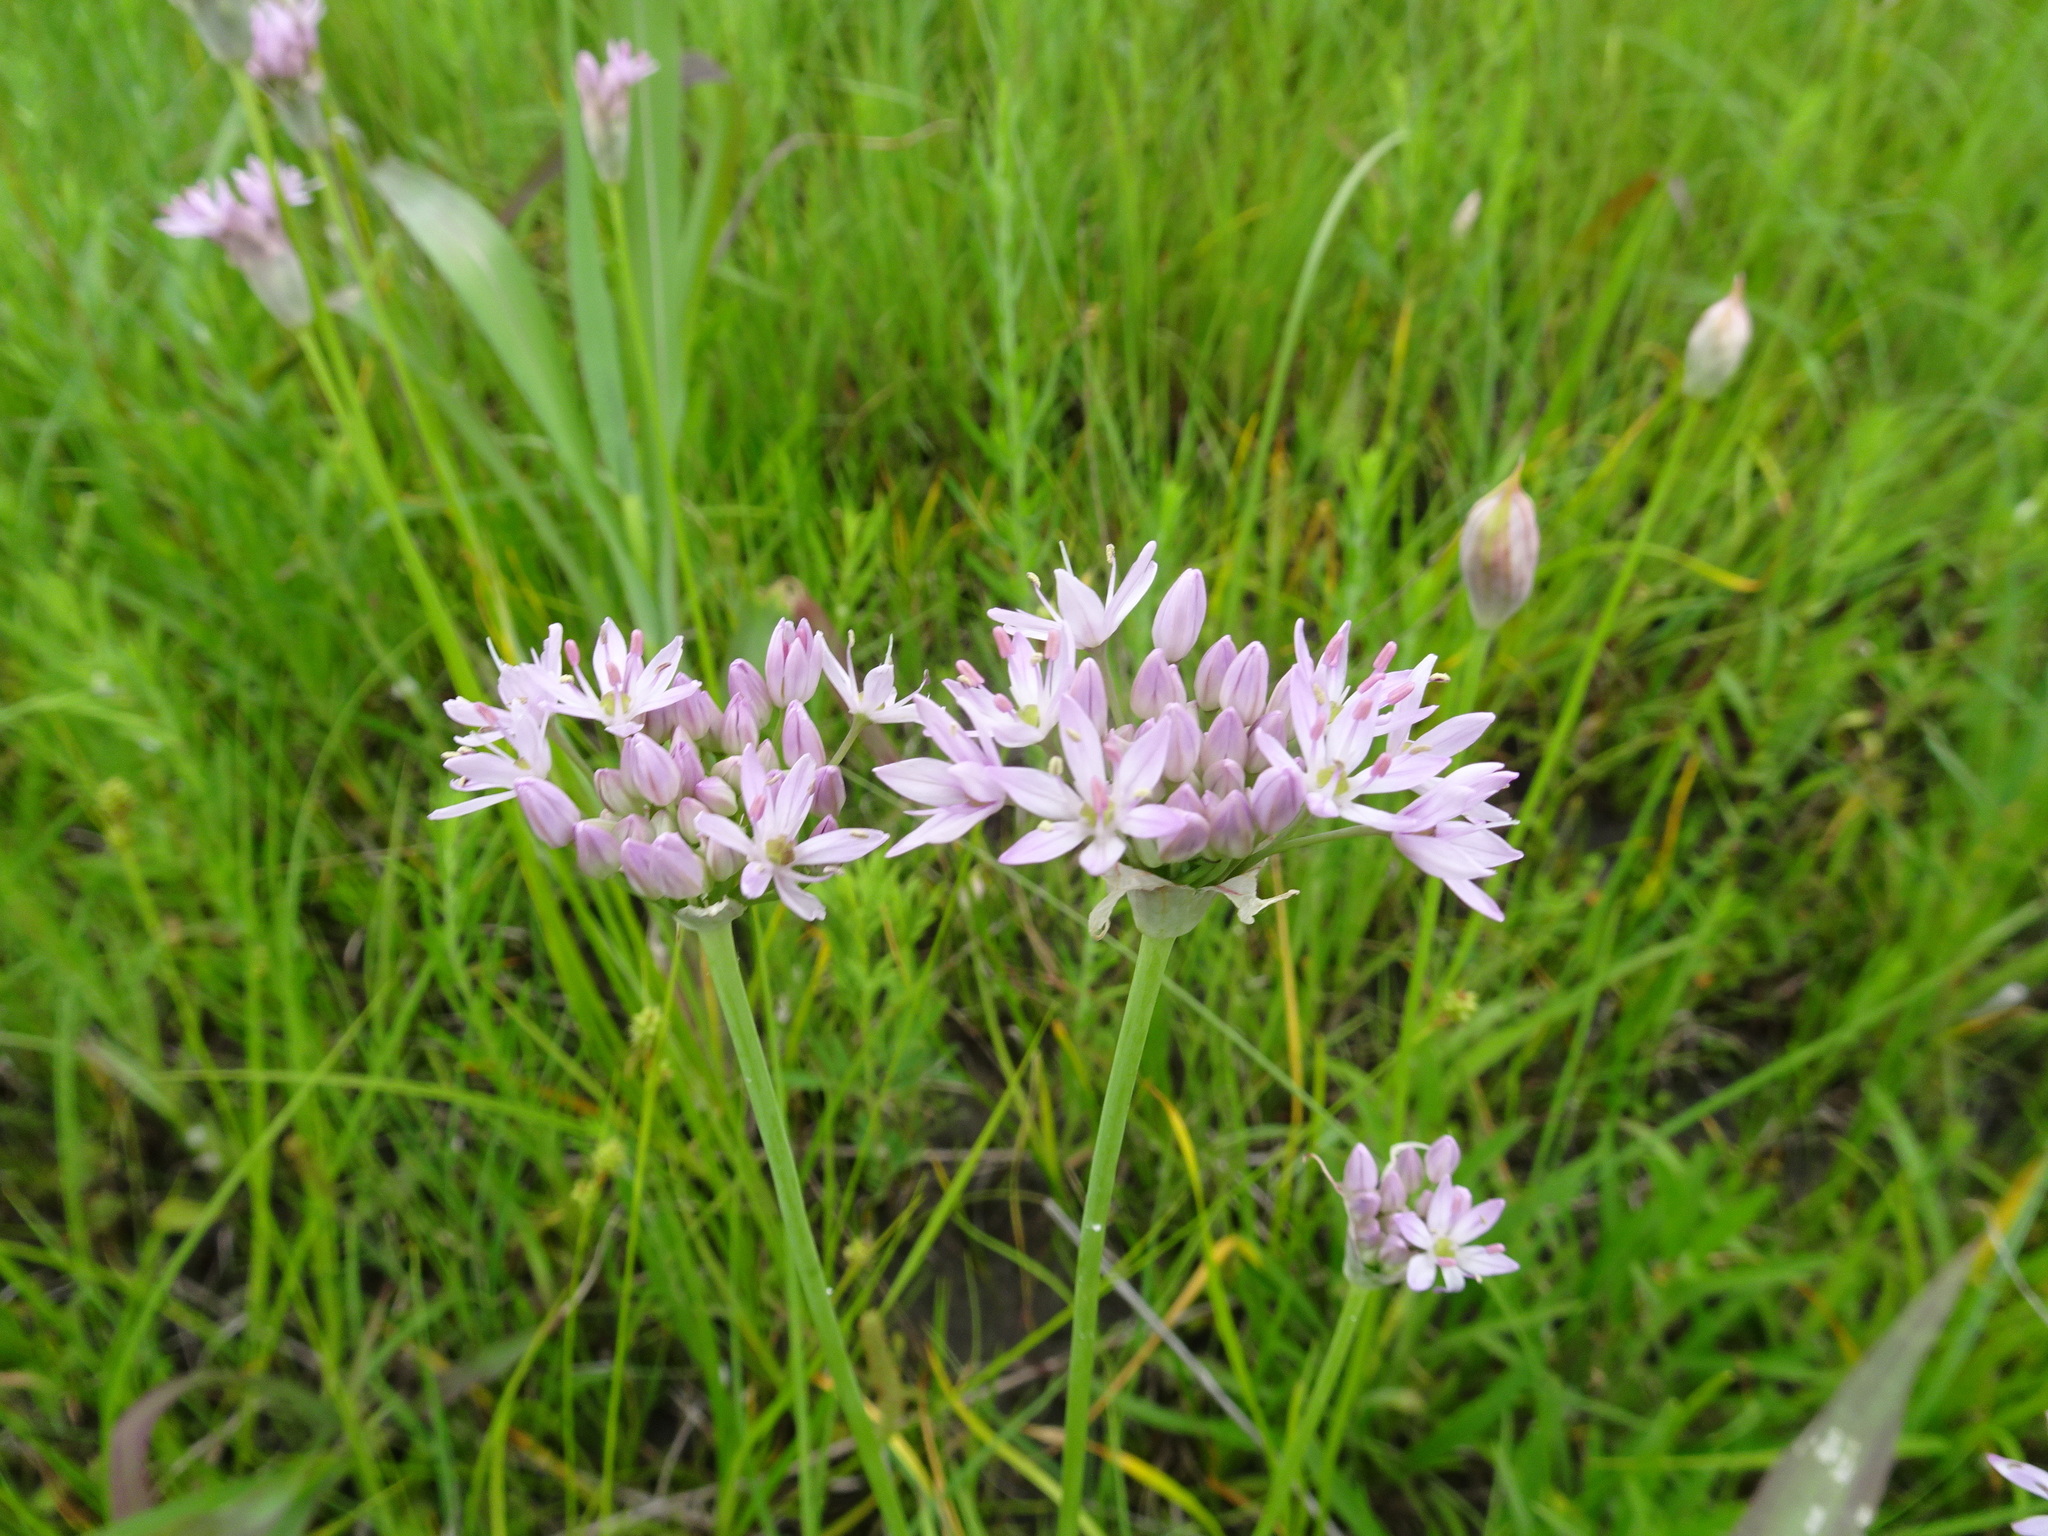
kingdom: Plantae
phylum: Tracheophyta
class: Liliopsida
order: Asparagales
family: Amaryllidaceae
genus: Allium
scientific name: Allium canadense
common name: Meadow garlic
